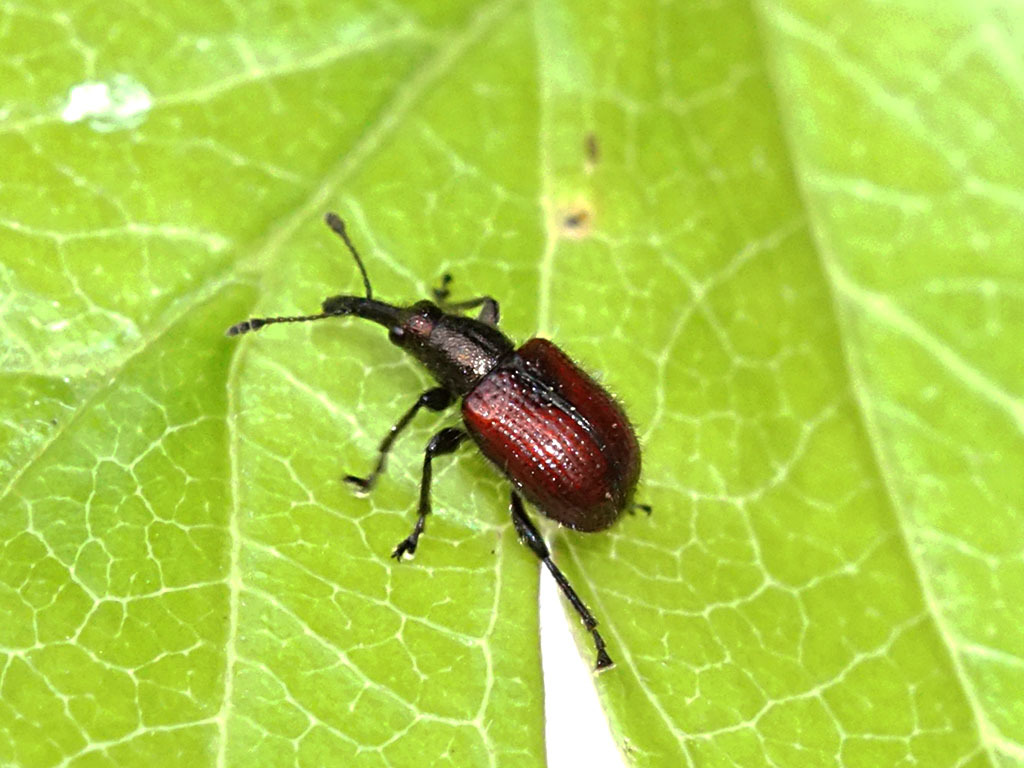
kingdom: Animalia
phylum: Arthropoda
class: Insecta
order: Coleoptera
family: Rhynchitidae
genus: Tatianaerhynchites
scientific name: Tatianaerhynchites aequatus
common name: Apple fruit rhynchites
